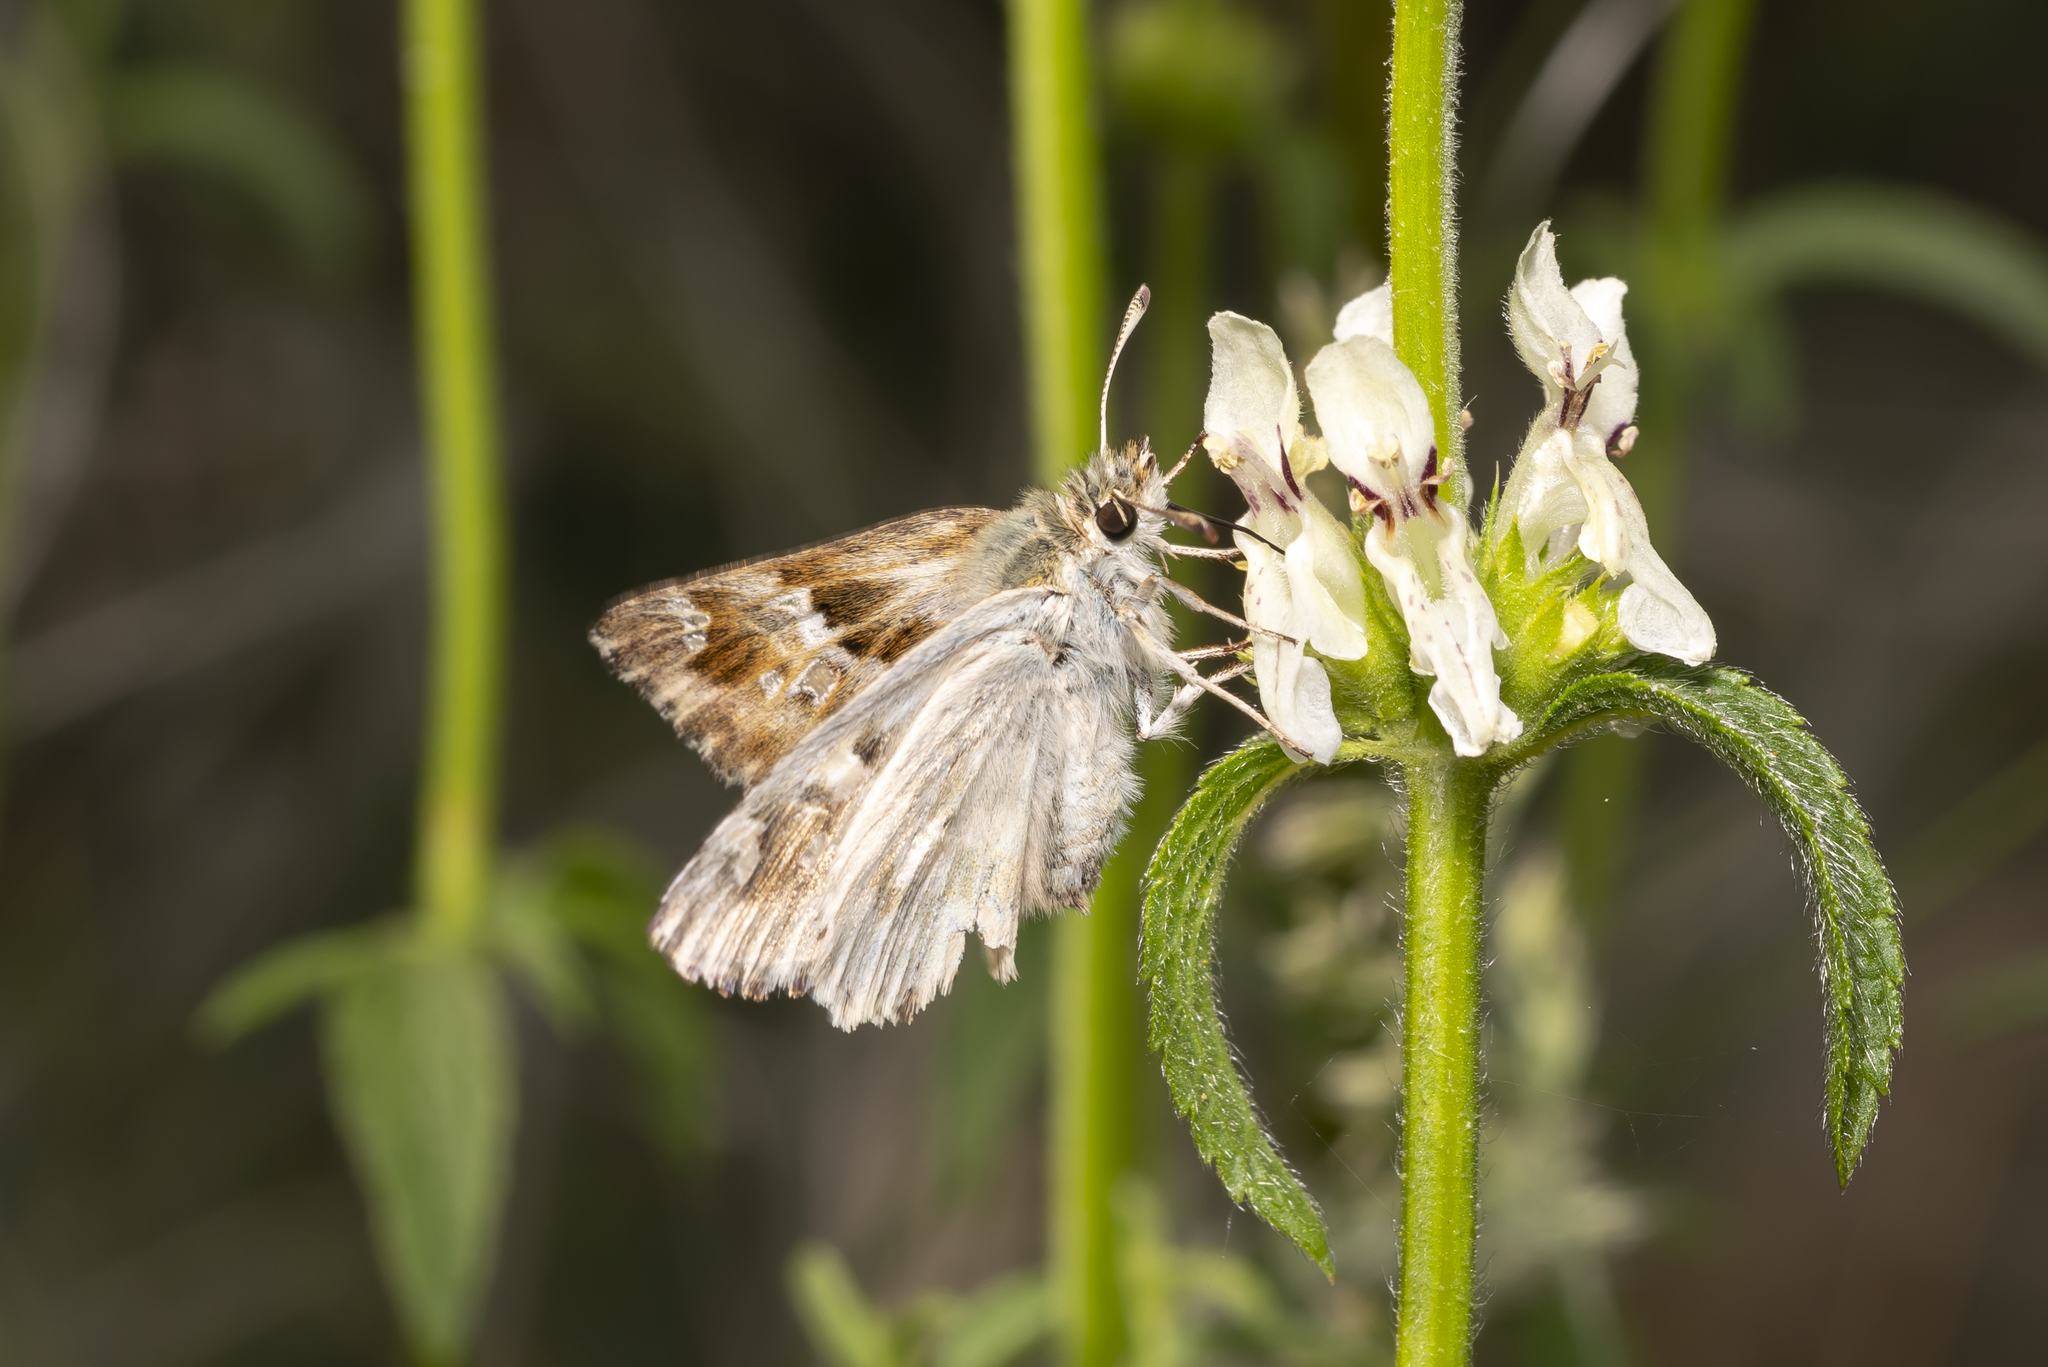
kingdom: Animalia
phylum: Arthropoda
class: Insecta
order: Lepidoptera
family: Hesperiidae
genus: Carcharodus
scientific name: Carcharodus lavatherae
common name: Marbled skipper
